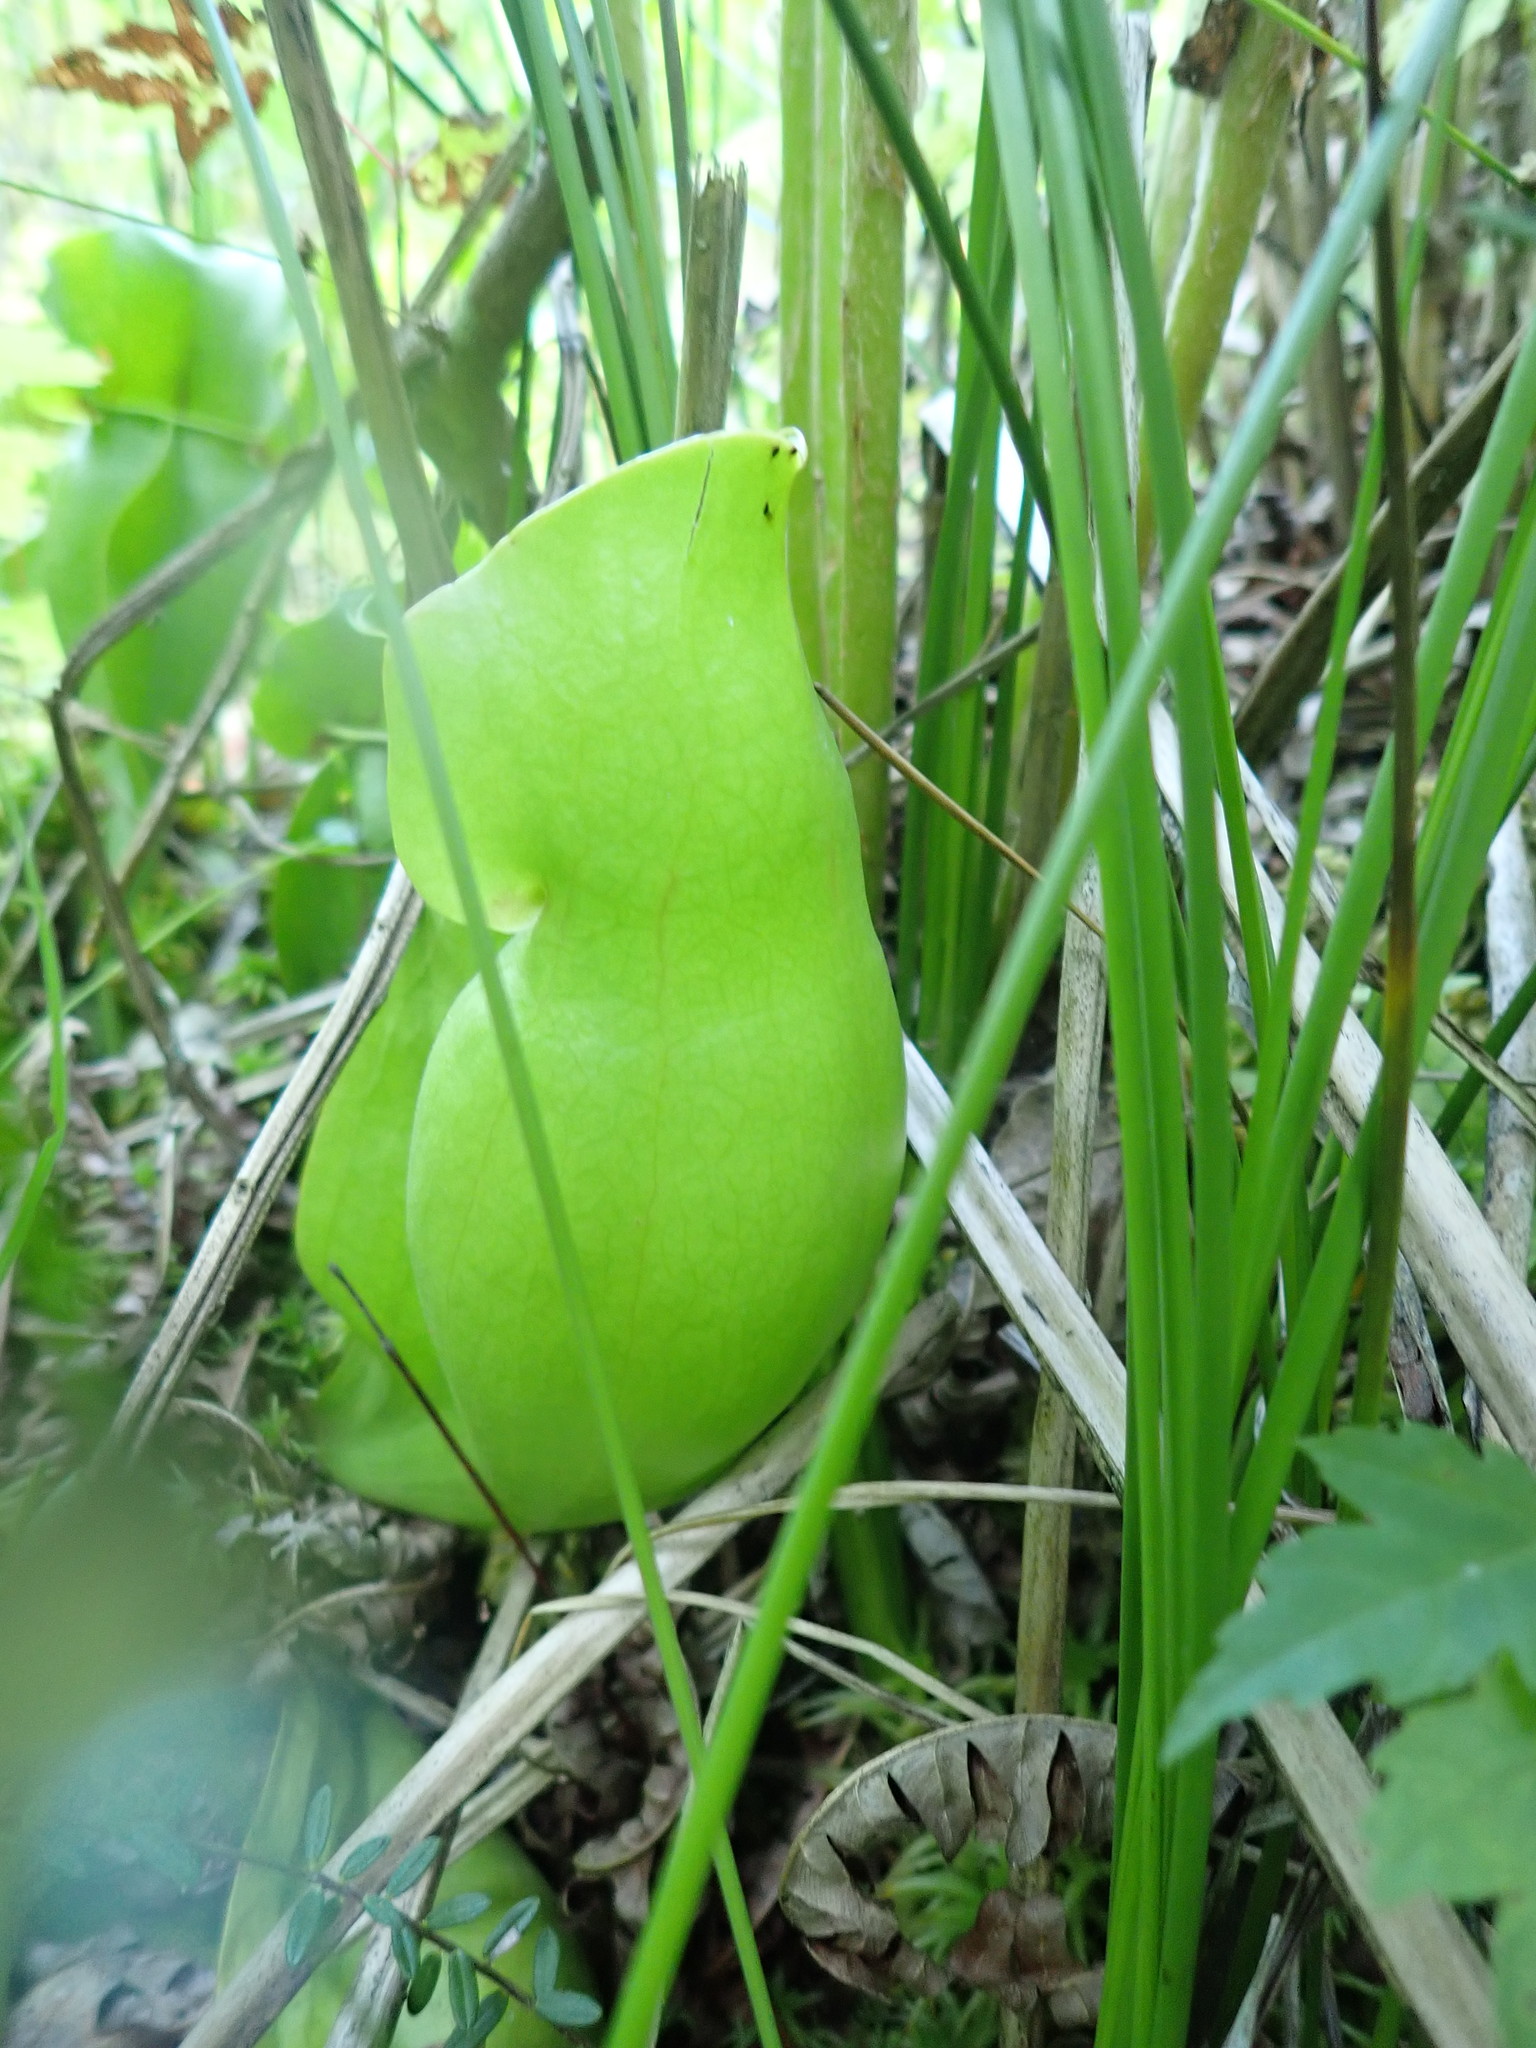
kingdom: Plantae
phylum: Tracheophyta
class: Magnoliopsida
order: Ericales
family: Sarraceniaceae
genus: Sarracenia
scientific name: Sarracenia purpurea
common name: Pitcherplant
